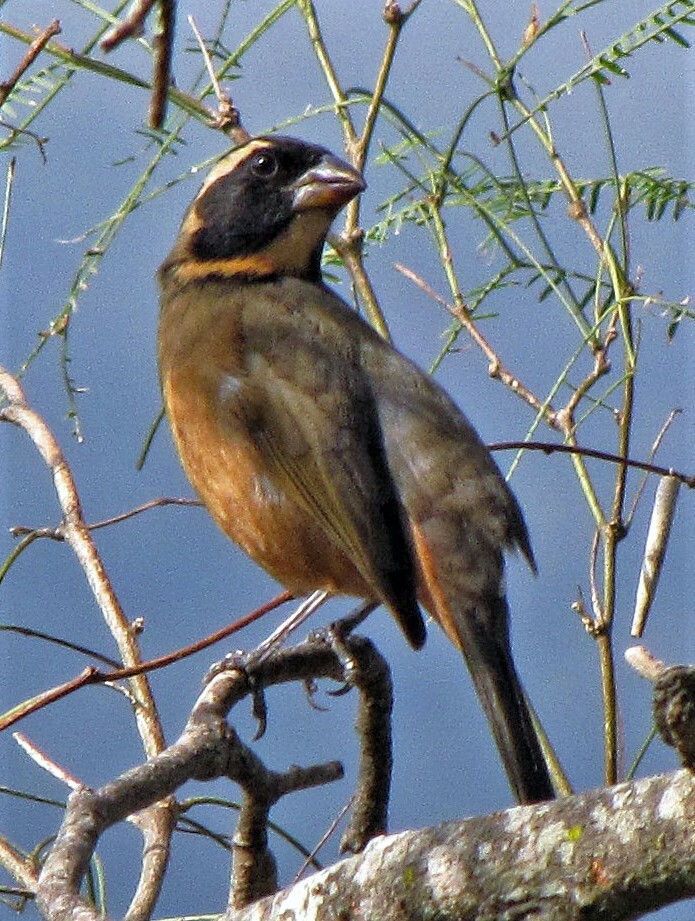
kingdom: Animalia
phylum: Chordata
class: Aves
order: Passeriformes
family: Thraupidae
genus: Saltator
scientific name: Saltator aurantiirostris
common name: Golden-billed saltator
